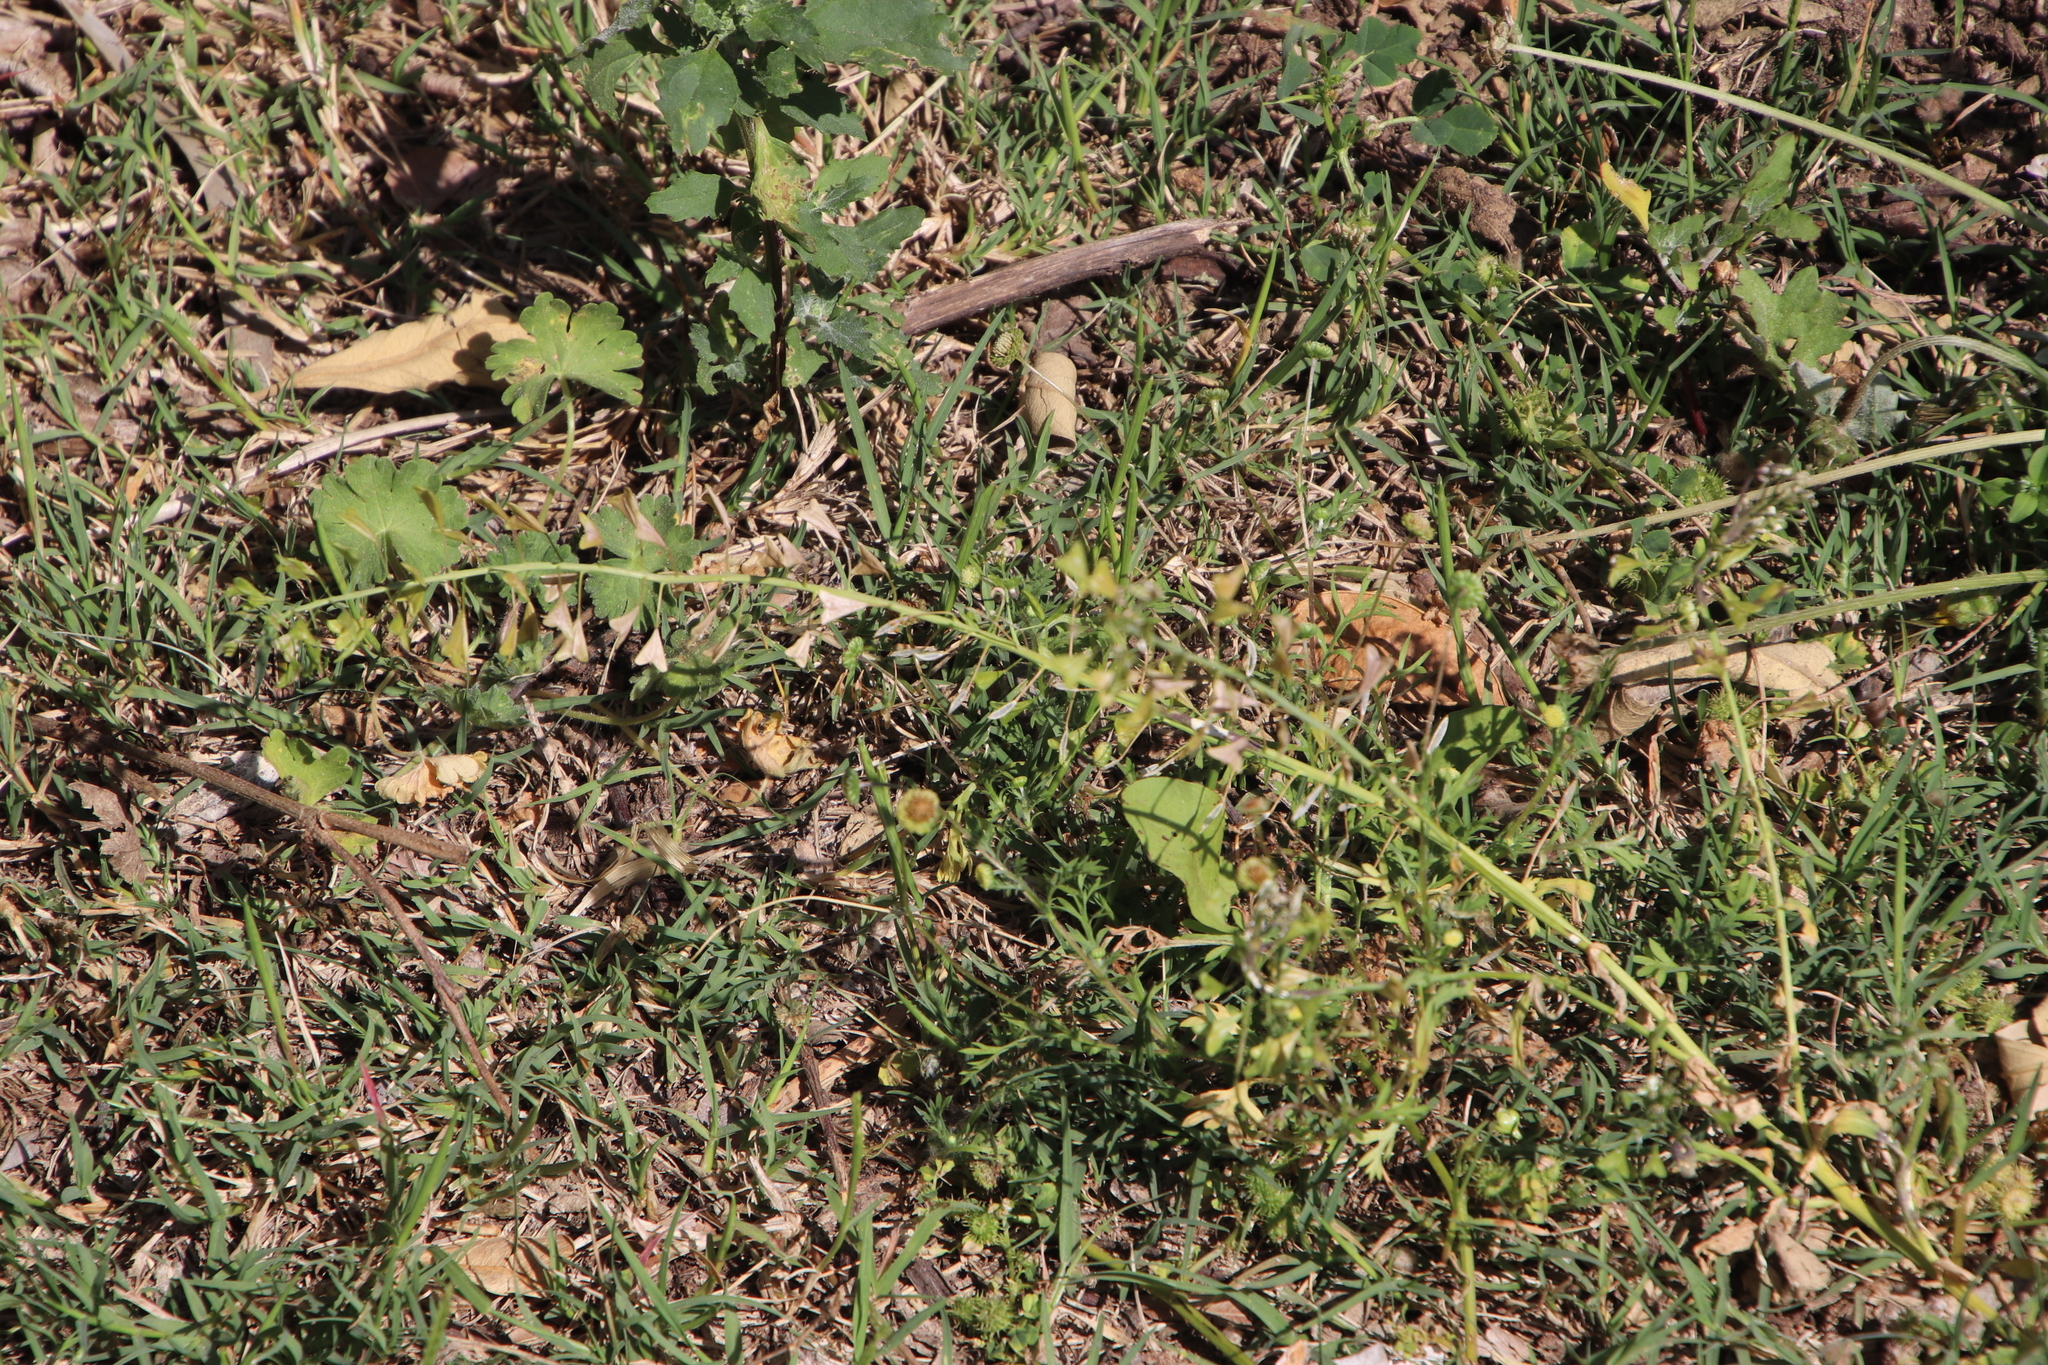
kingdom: Plantae
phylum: Tracheophyta
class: Magnoliopsida
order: Brassicales
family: Brassicaceae
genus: Capsella
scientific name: Capsella bursa-pastoris
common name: Shepherd's purse
